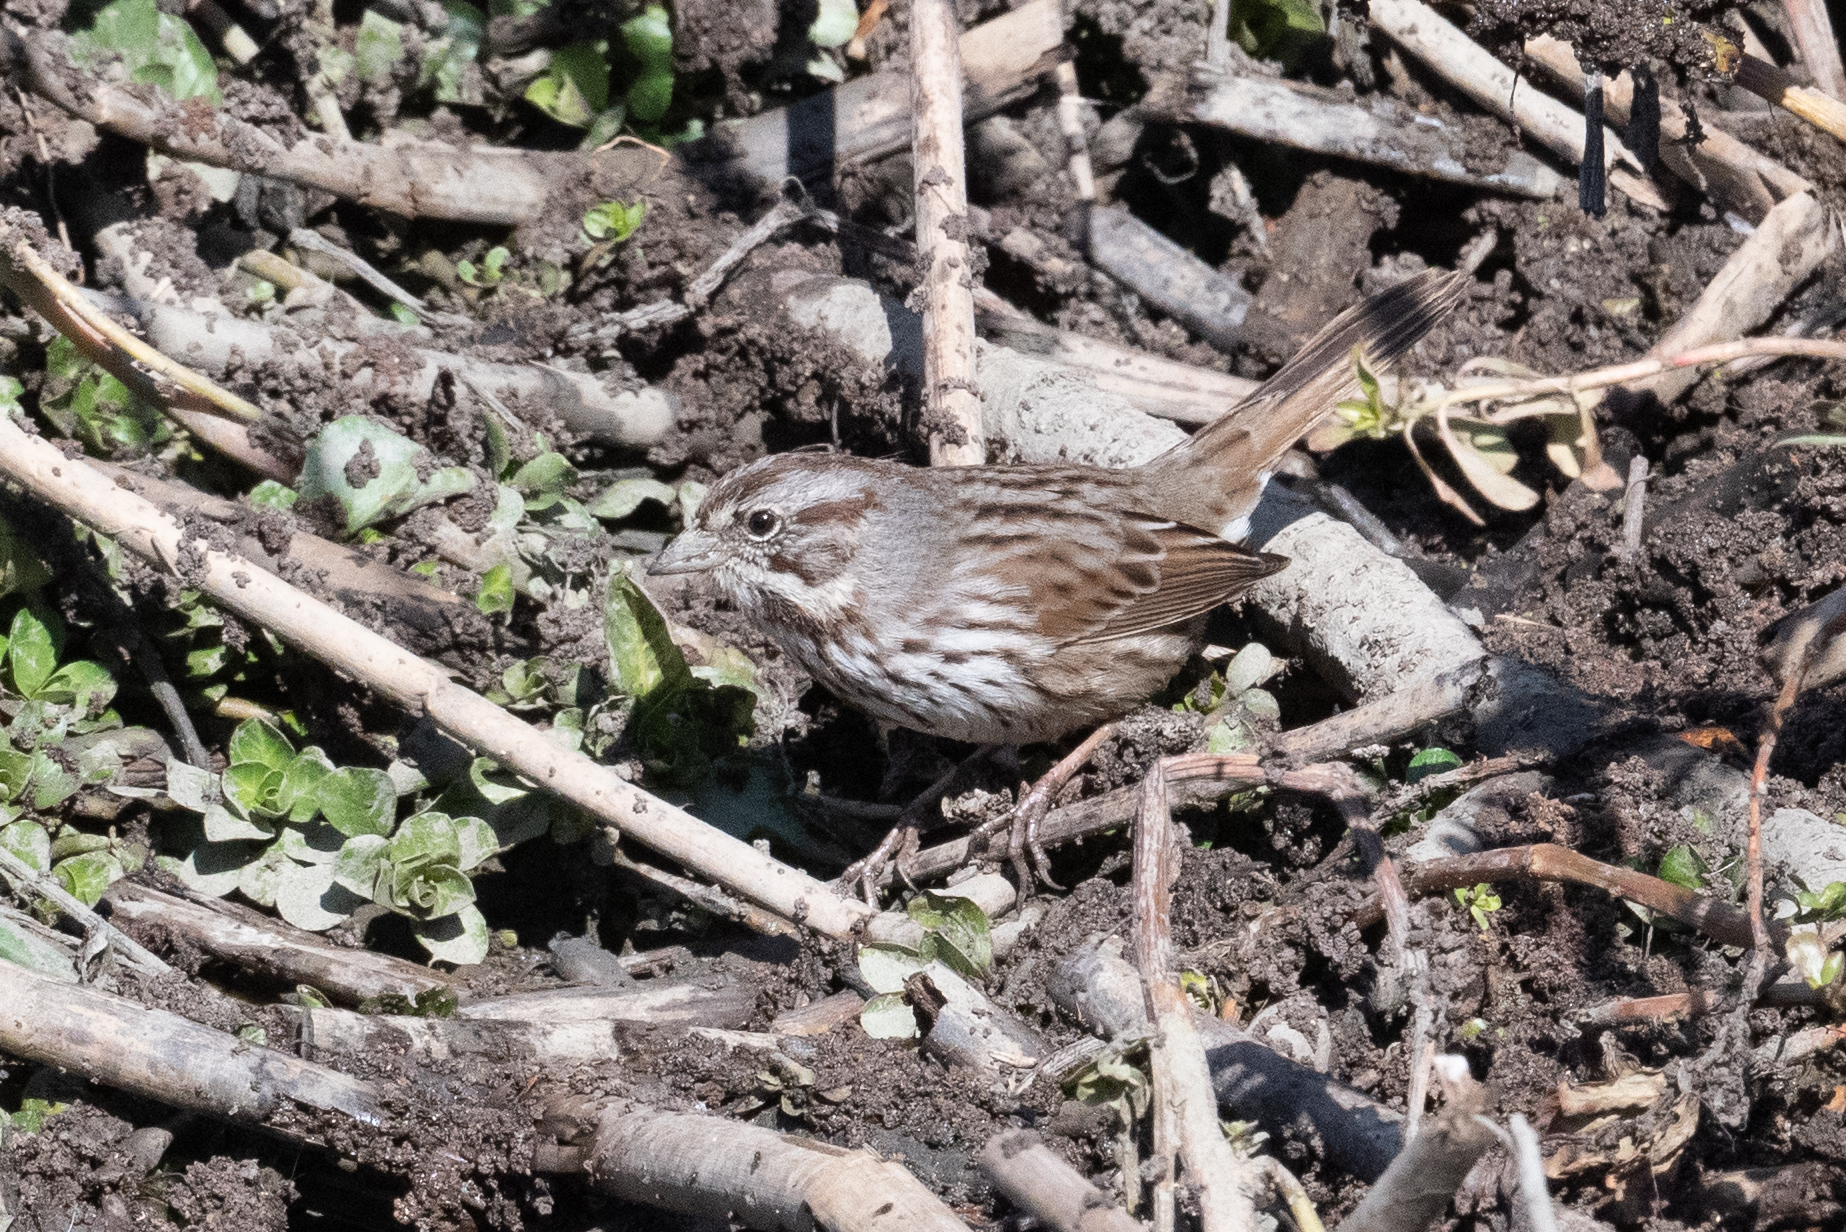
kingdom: Animalia
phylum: Chordata
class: Aves
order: Passeriformes
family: Passerellidae
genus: Melospiza
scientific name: Melospiza melodia
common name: Song sparrow
